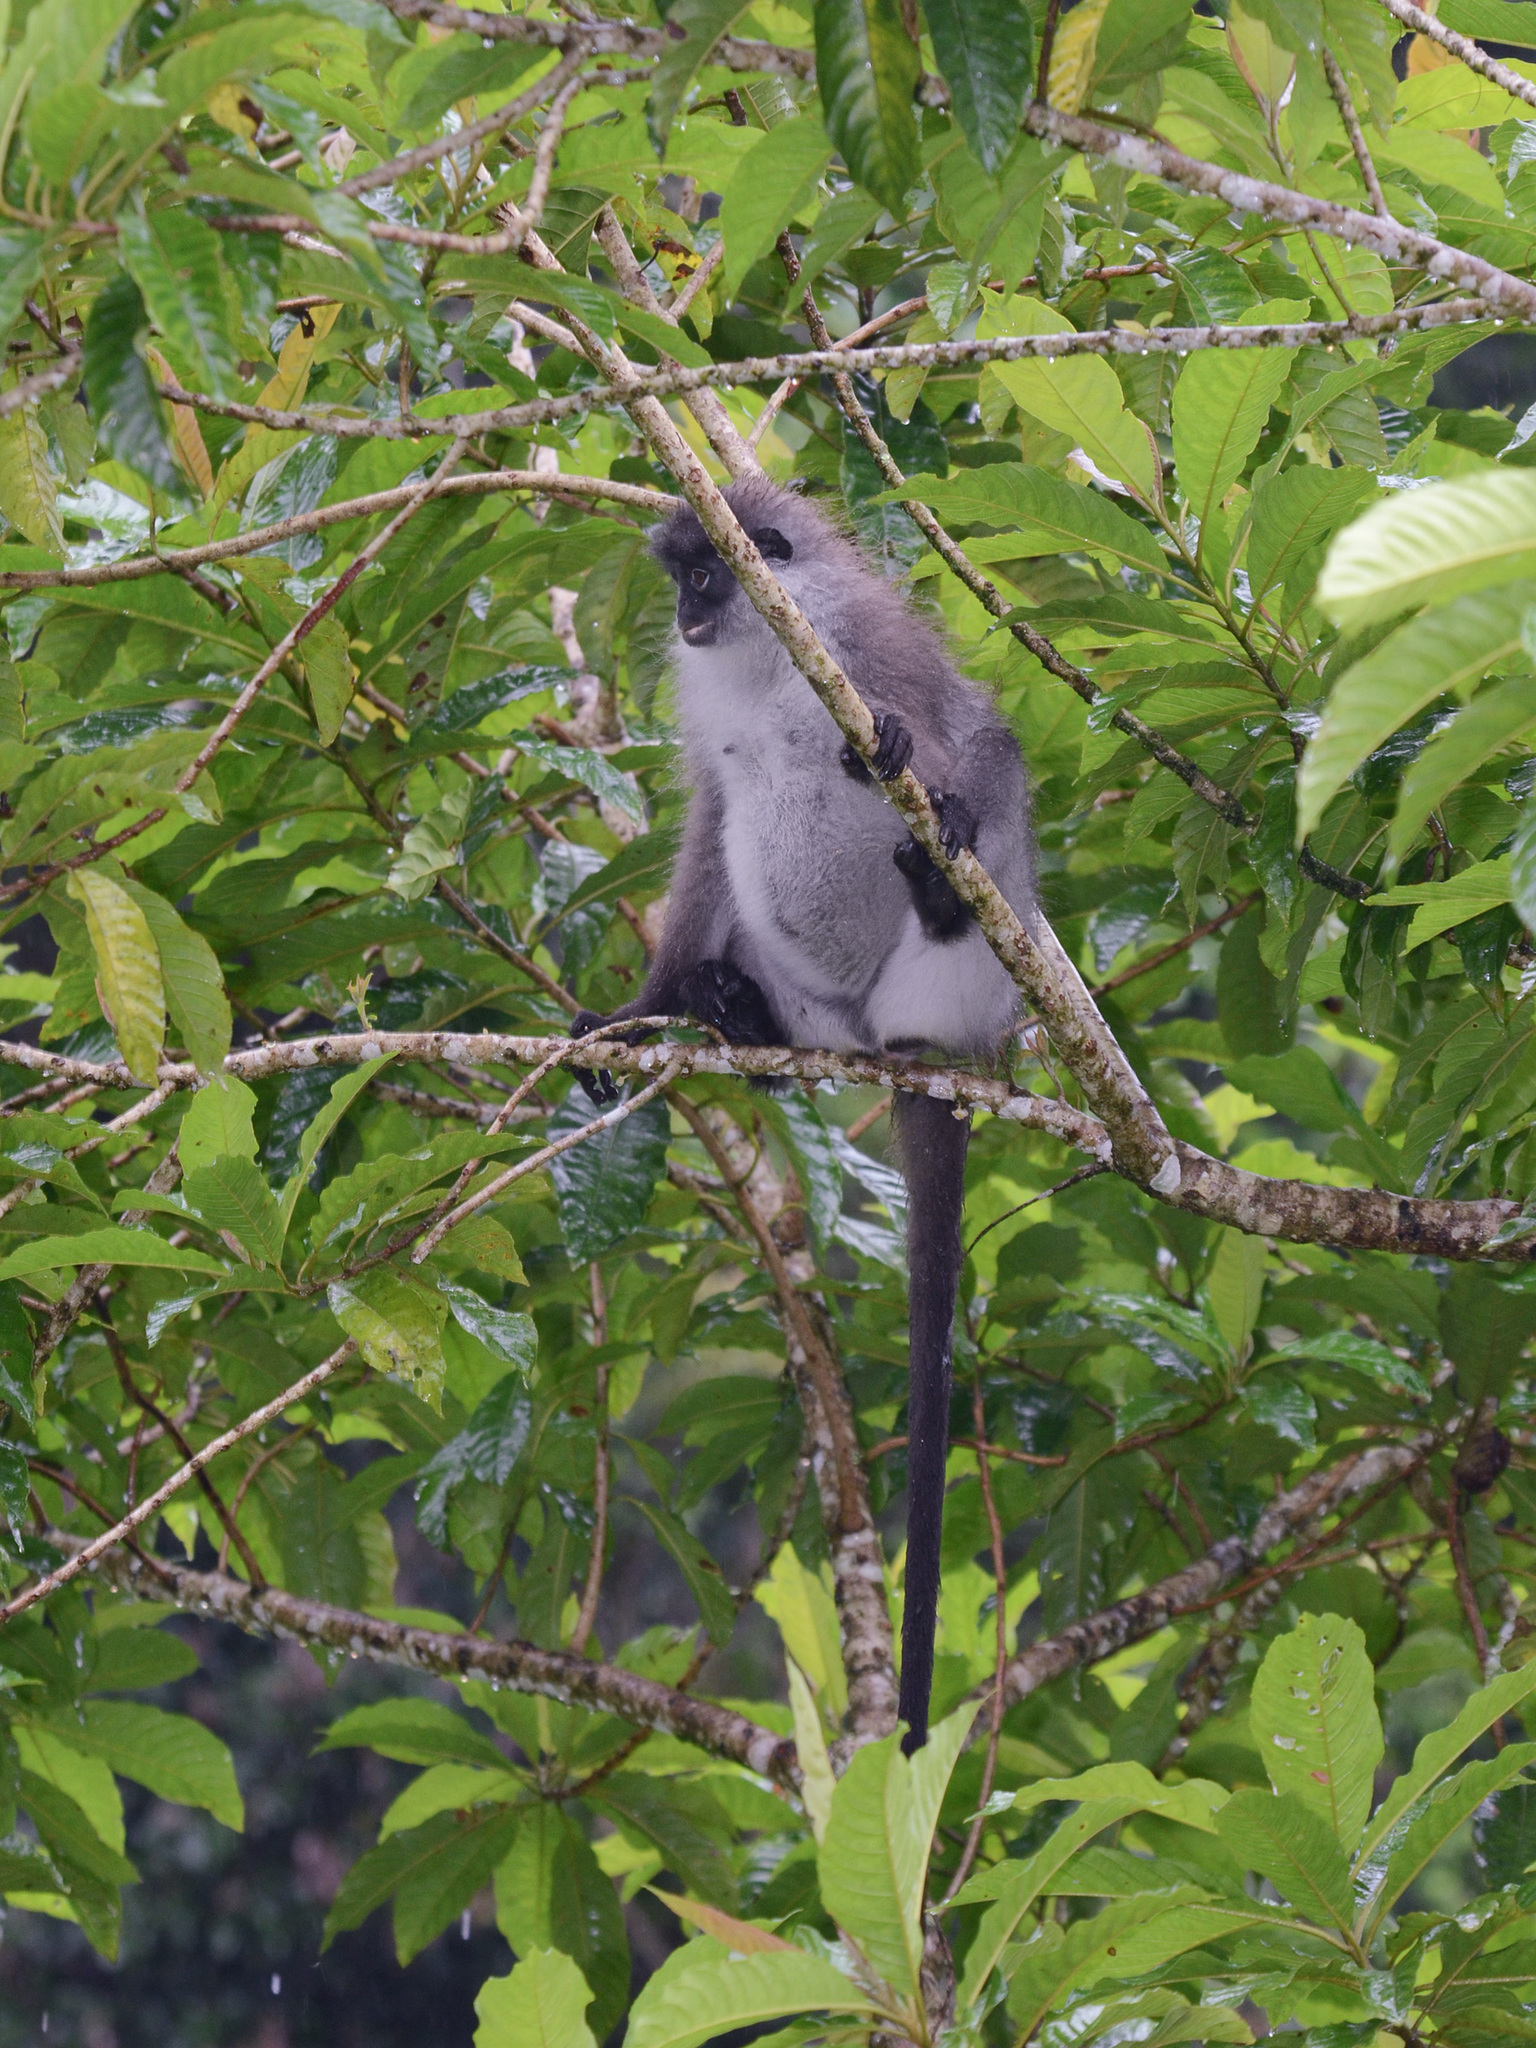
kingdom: Animalia
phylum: Chordata
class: Mammalia
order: Primates
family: Cercopithecidae
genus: Presbytis
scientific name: Presbytis siamensis
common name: White-thighed surili
